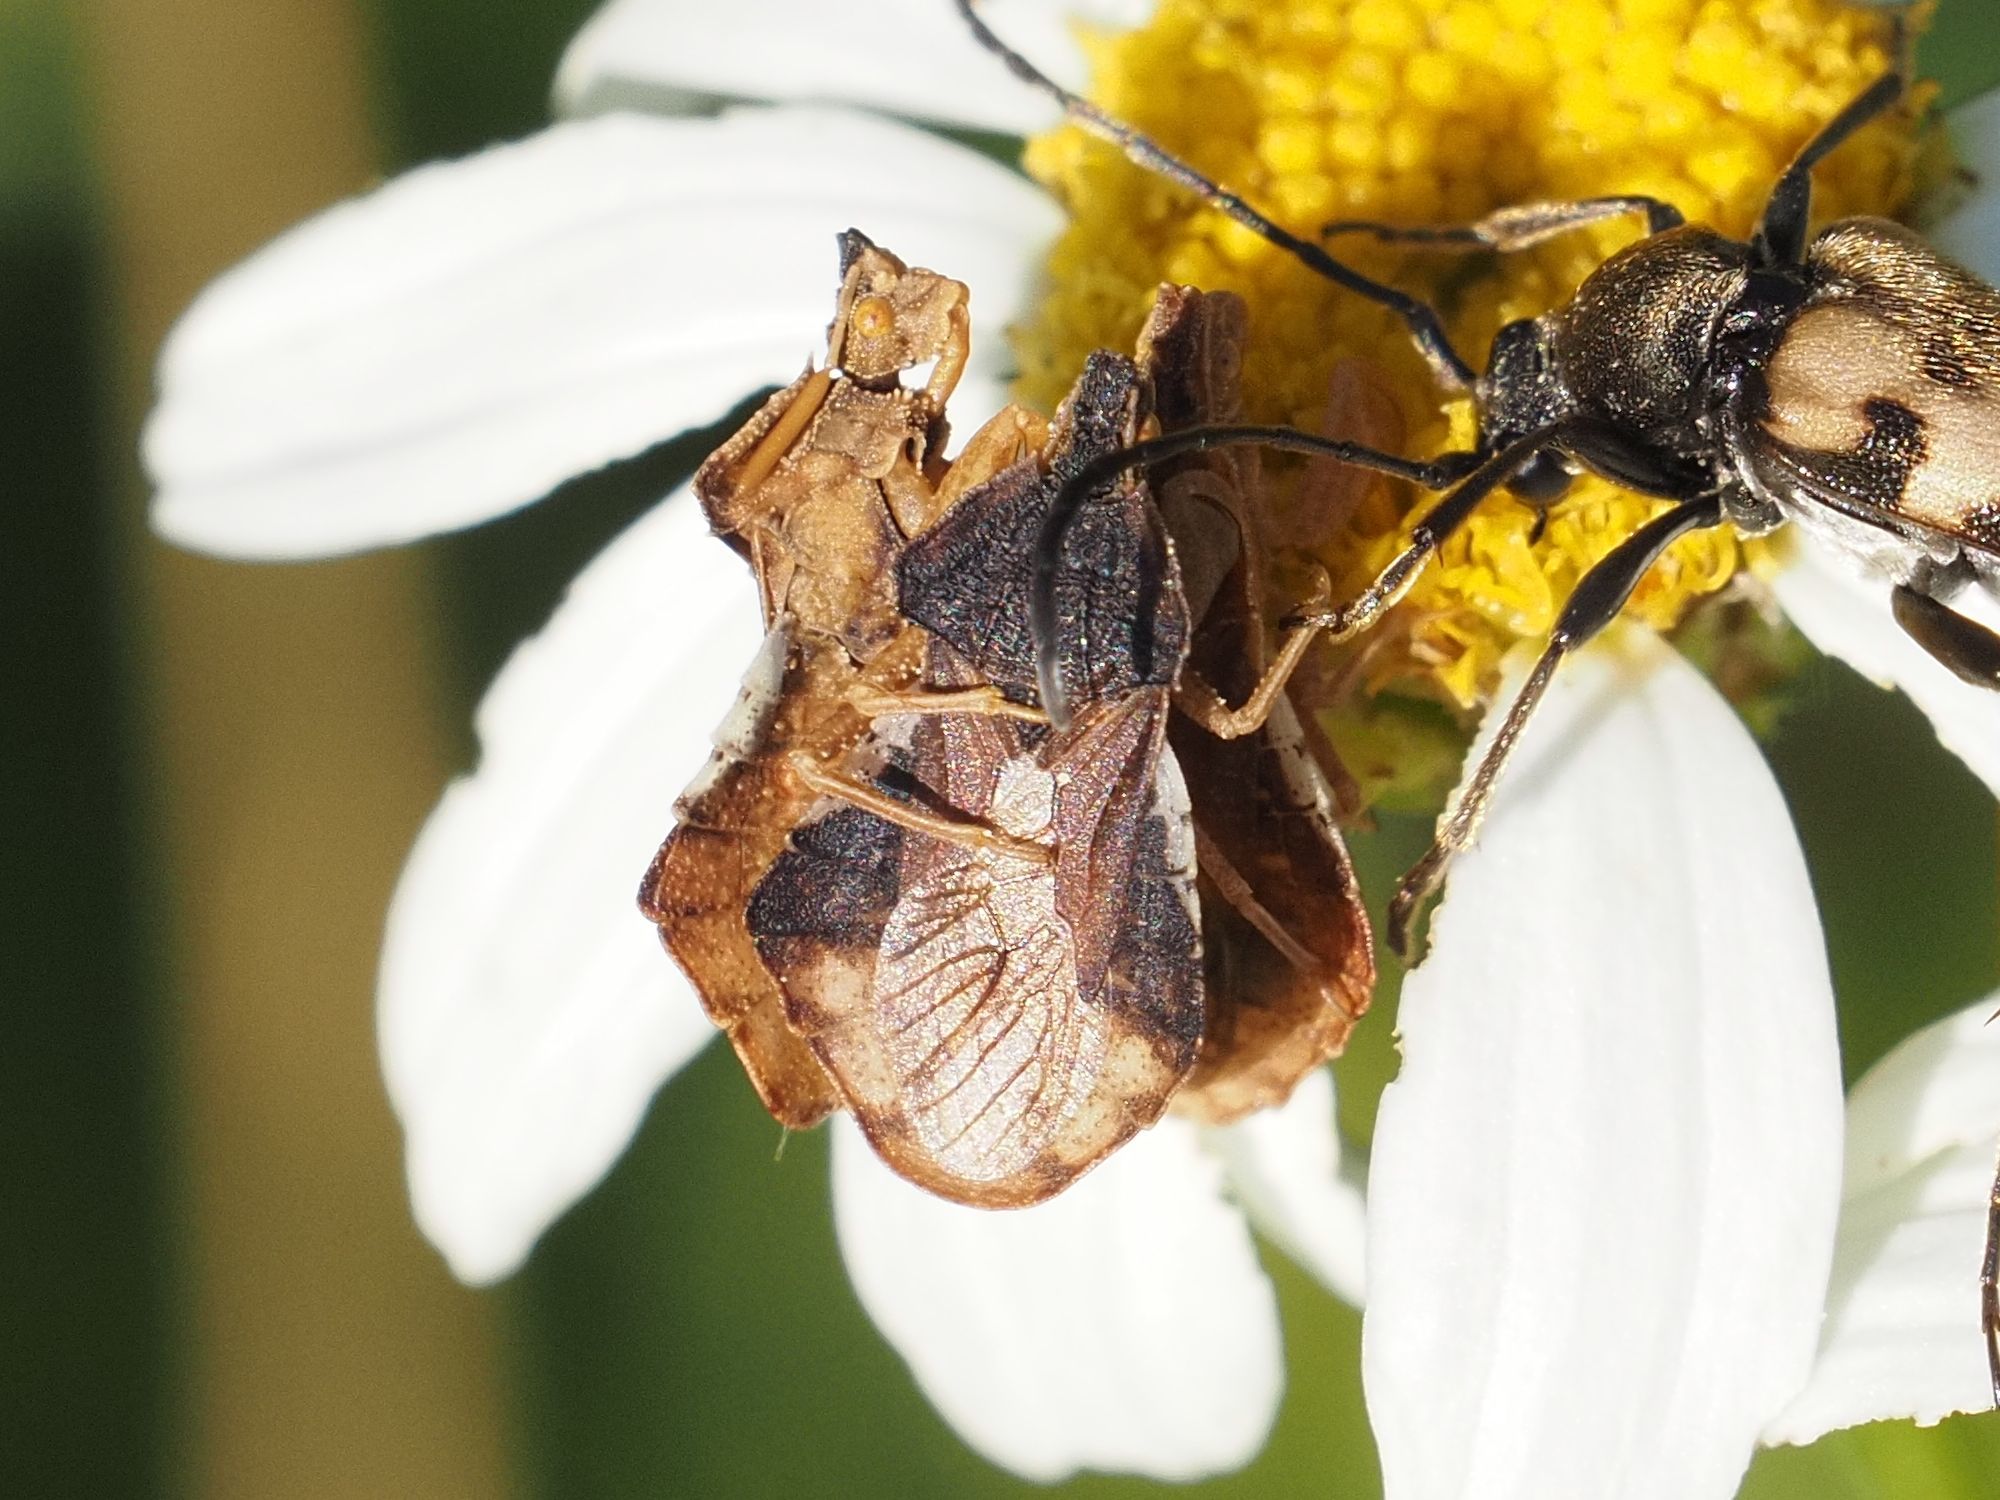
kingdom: Animalia
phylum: Arthropoda
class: Insecta
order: Hemiptera
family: Reduviidae
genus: Phymata
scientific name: Phymata crassipes
